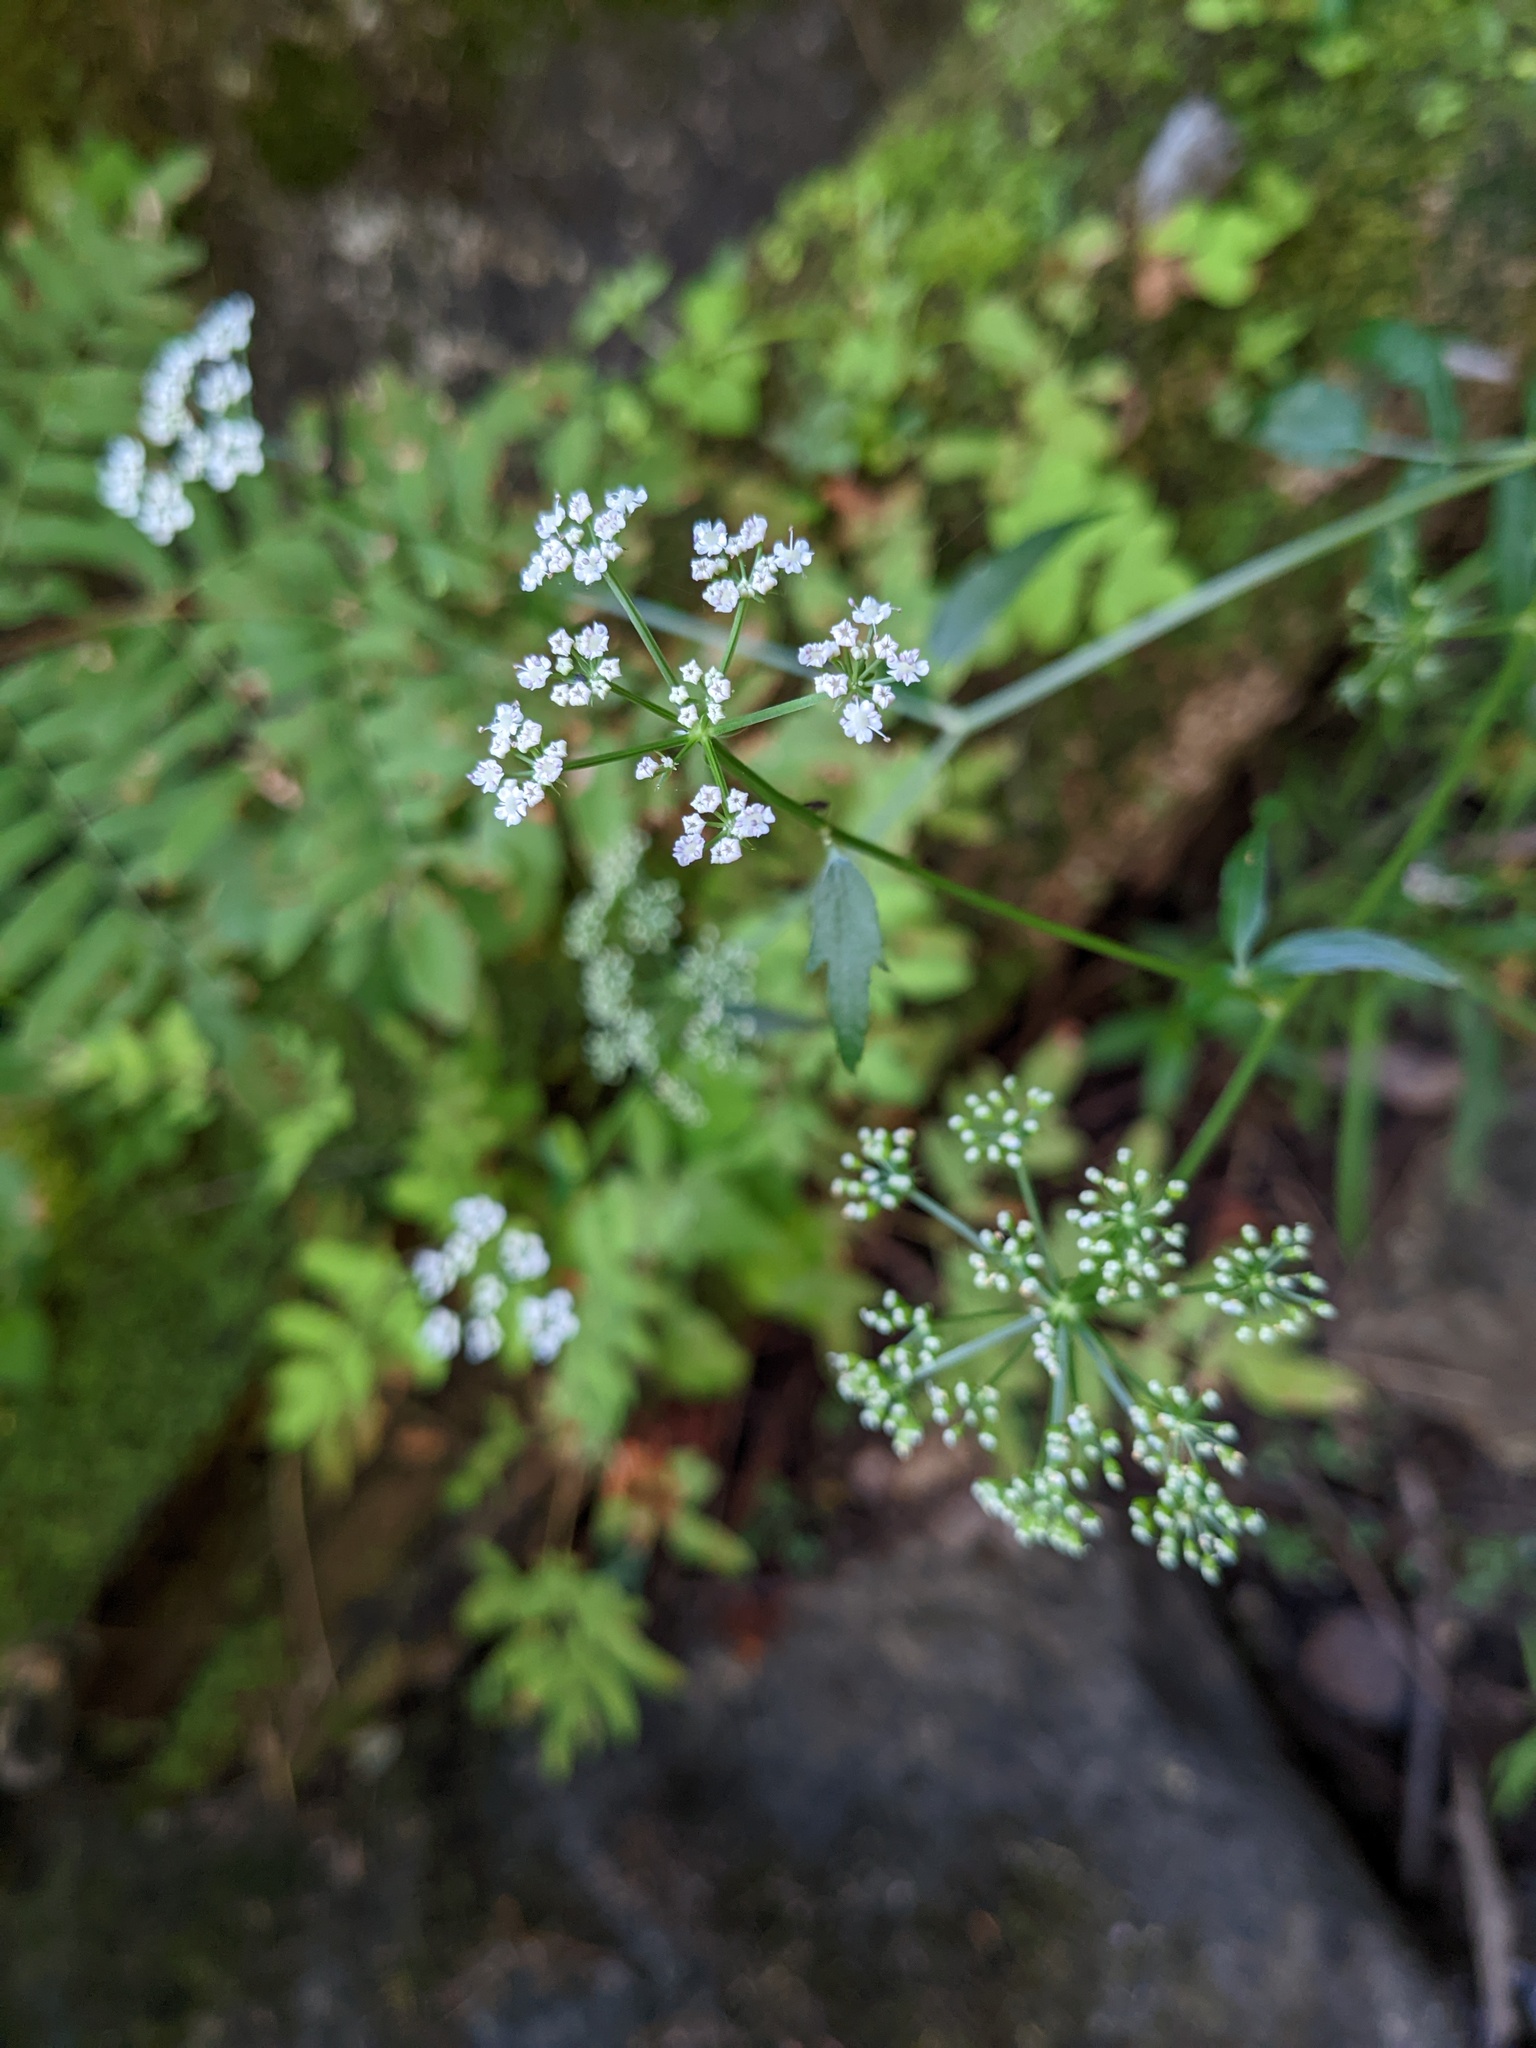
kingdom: Plantae
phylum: Tracheophyta
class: Magnoliopsida
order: Apiales
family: Apiaceae
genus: Sium
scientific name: Sium suave
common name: Hemlock water-parsnip
